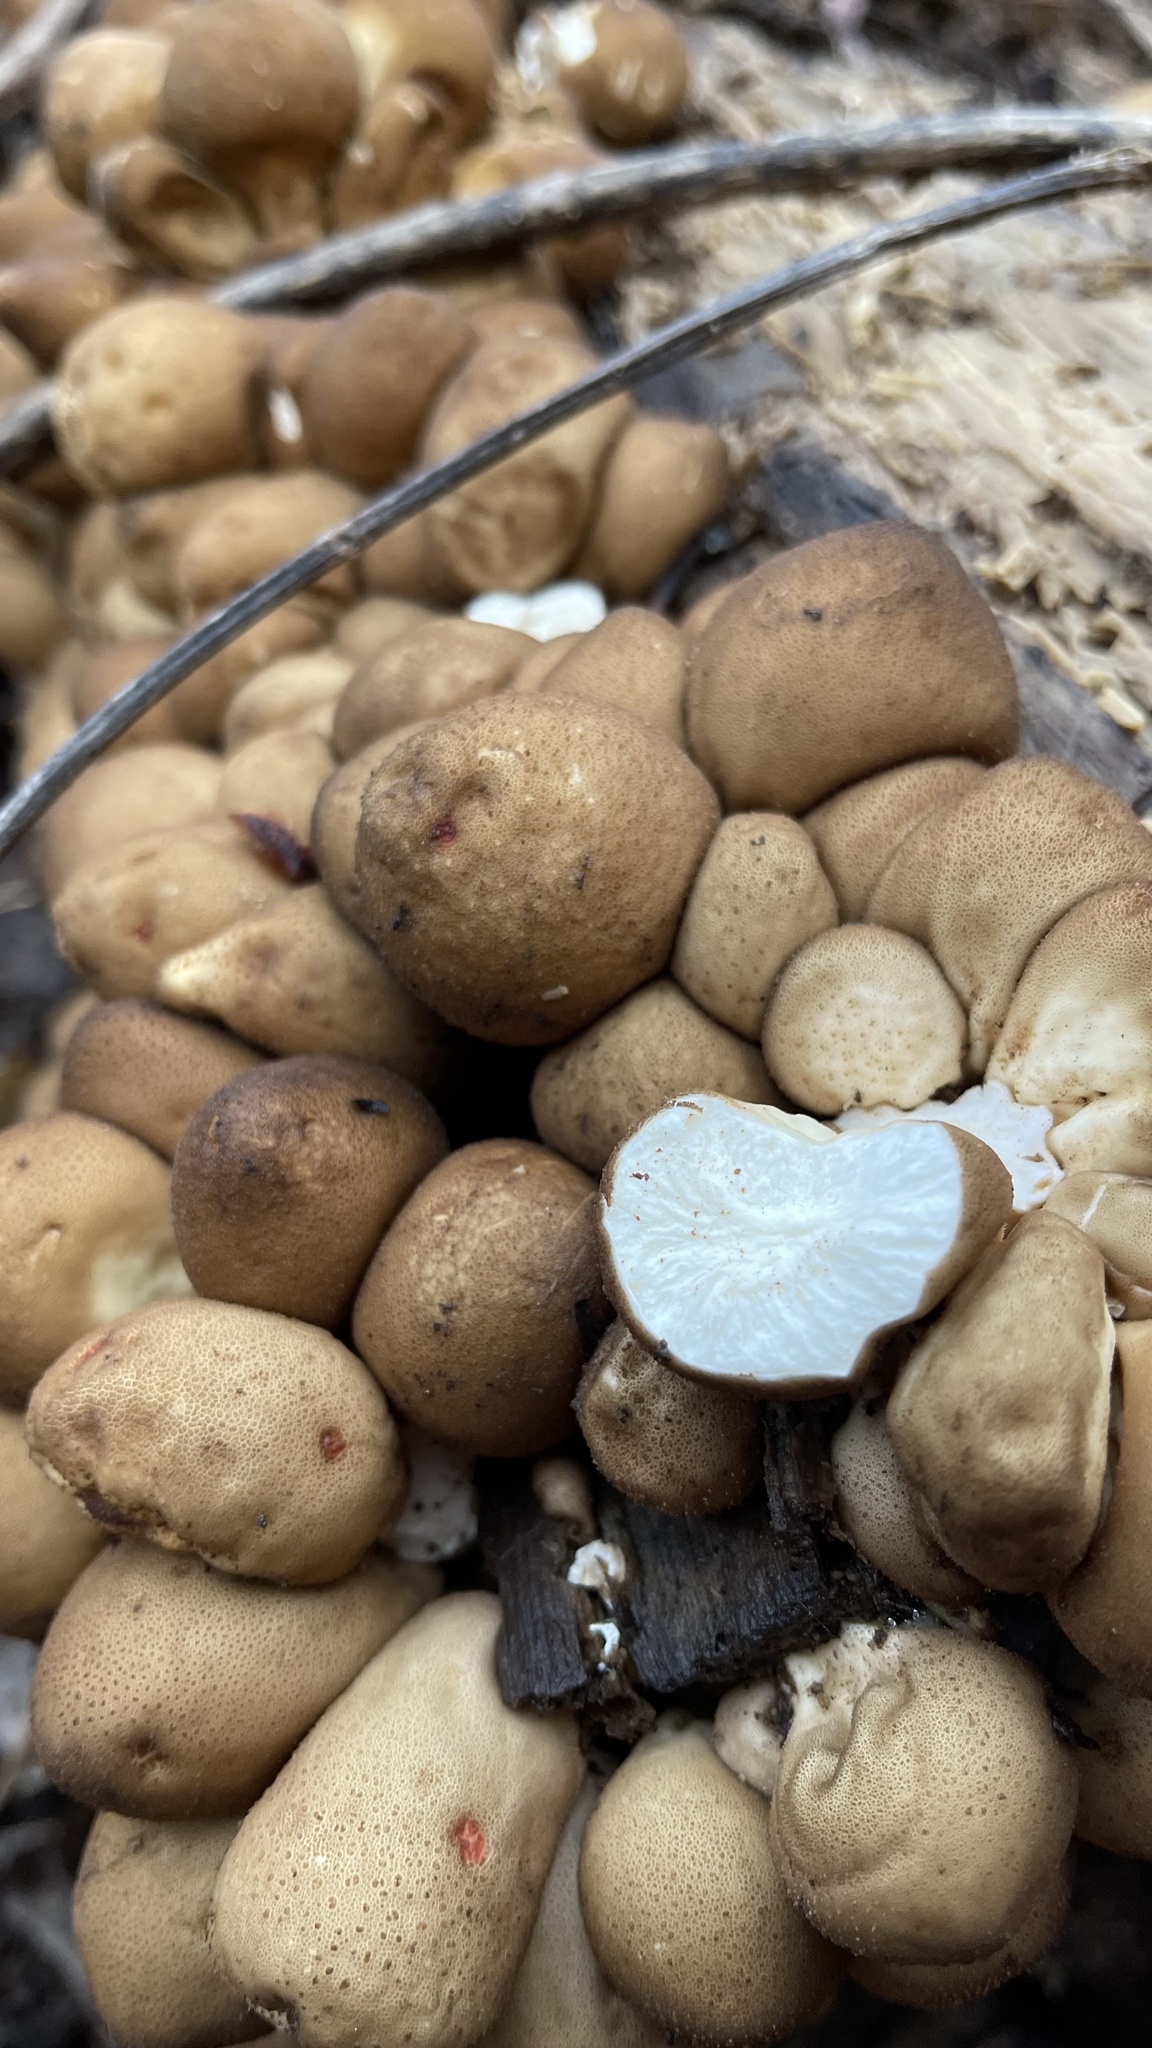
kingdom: Fungi
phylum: Basidiomycota
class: Agaricomycetes
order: Agaricales
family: Lycoperdaceae
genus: Apioperdon
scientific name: Apioperdon pyriforme
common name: Pear-shaped puffball
